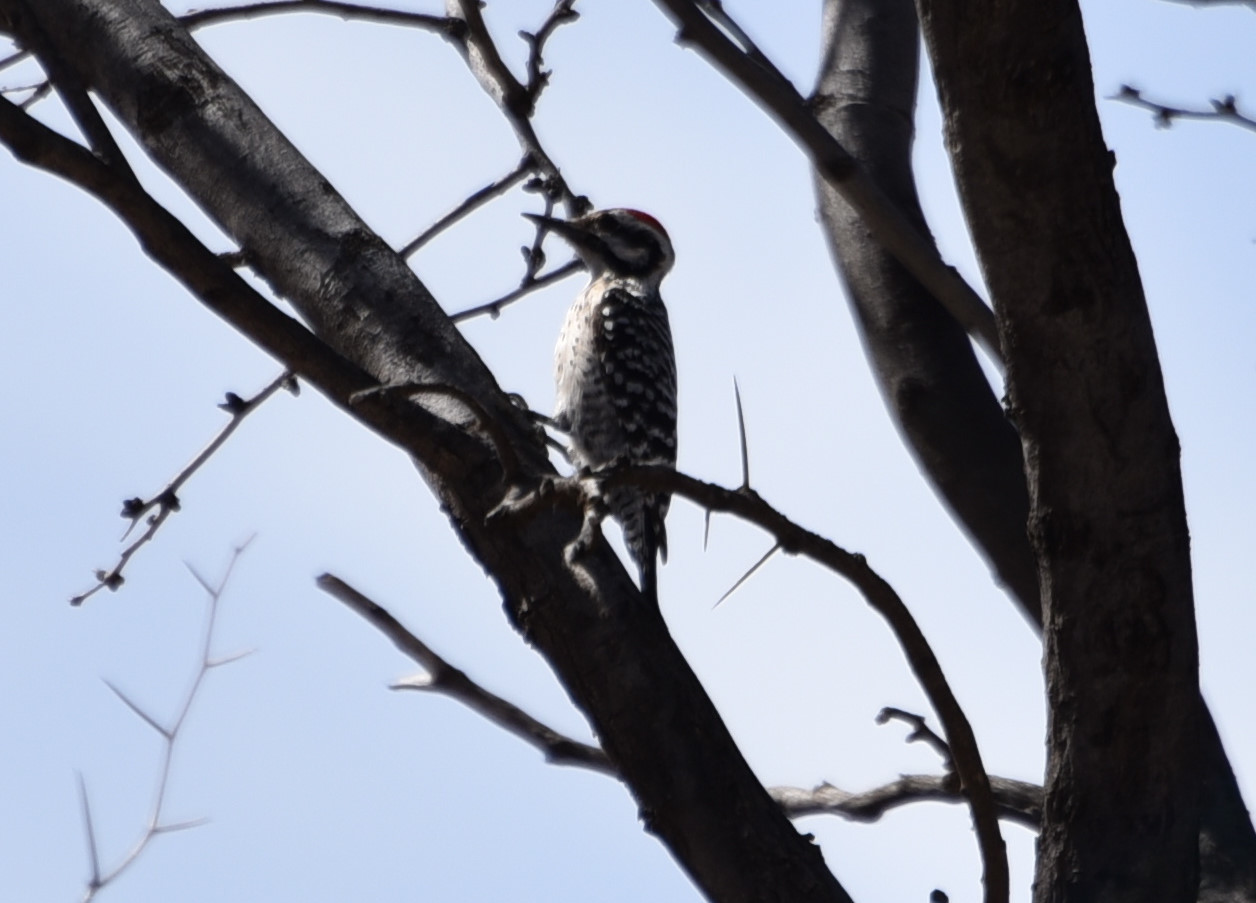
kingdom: Animalia
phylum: Chordata
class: Aves
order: Piciformes
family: Picidae
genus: Dryobates
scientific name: Dryobates scalaris
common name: Ladder-backed woodpecker
